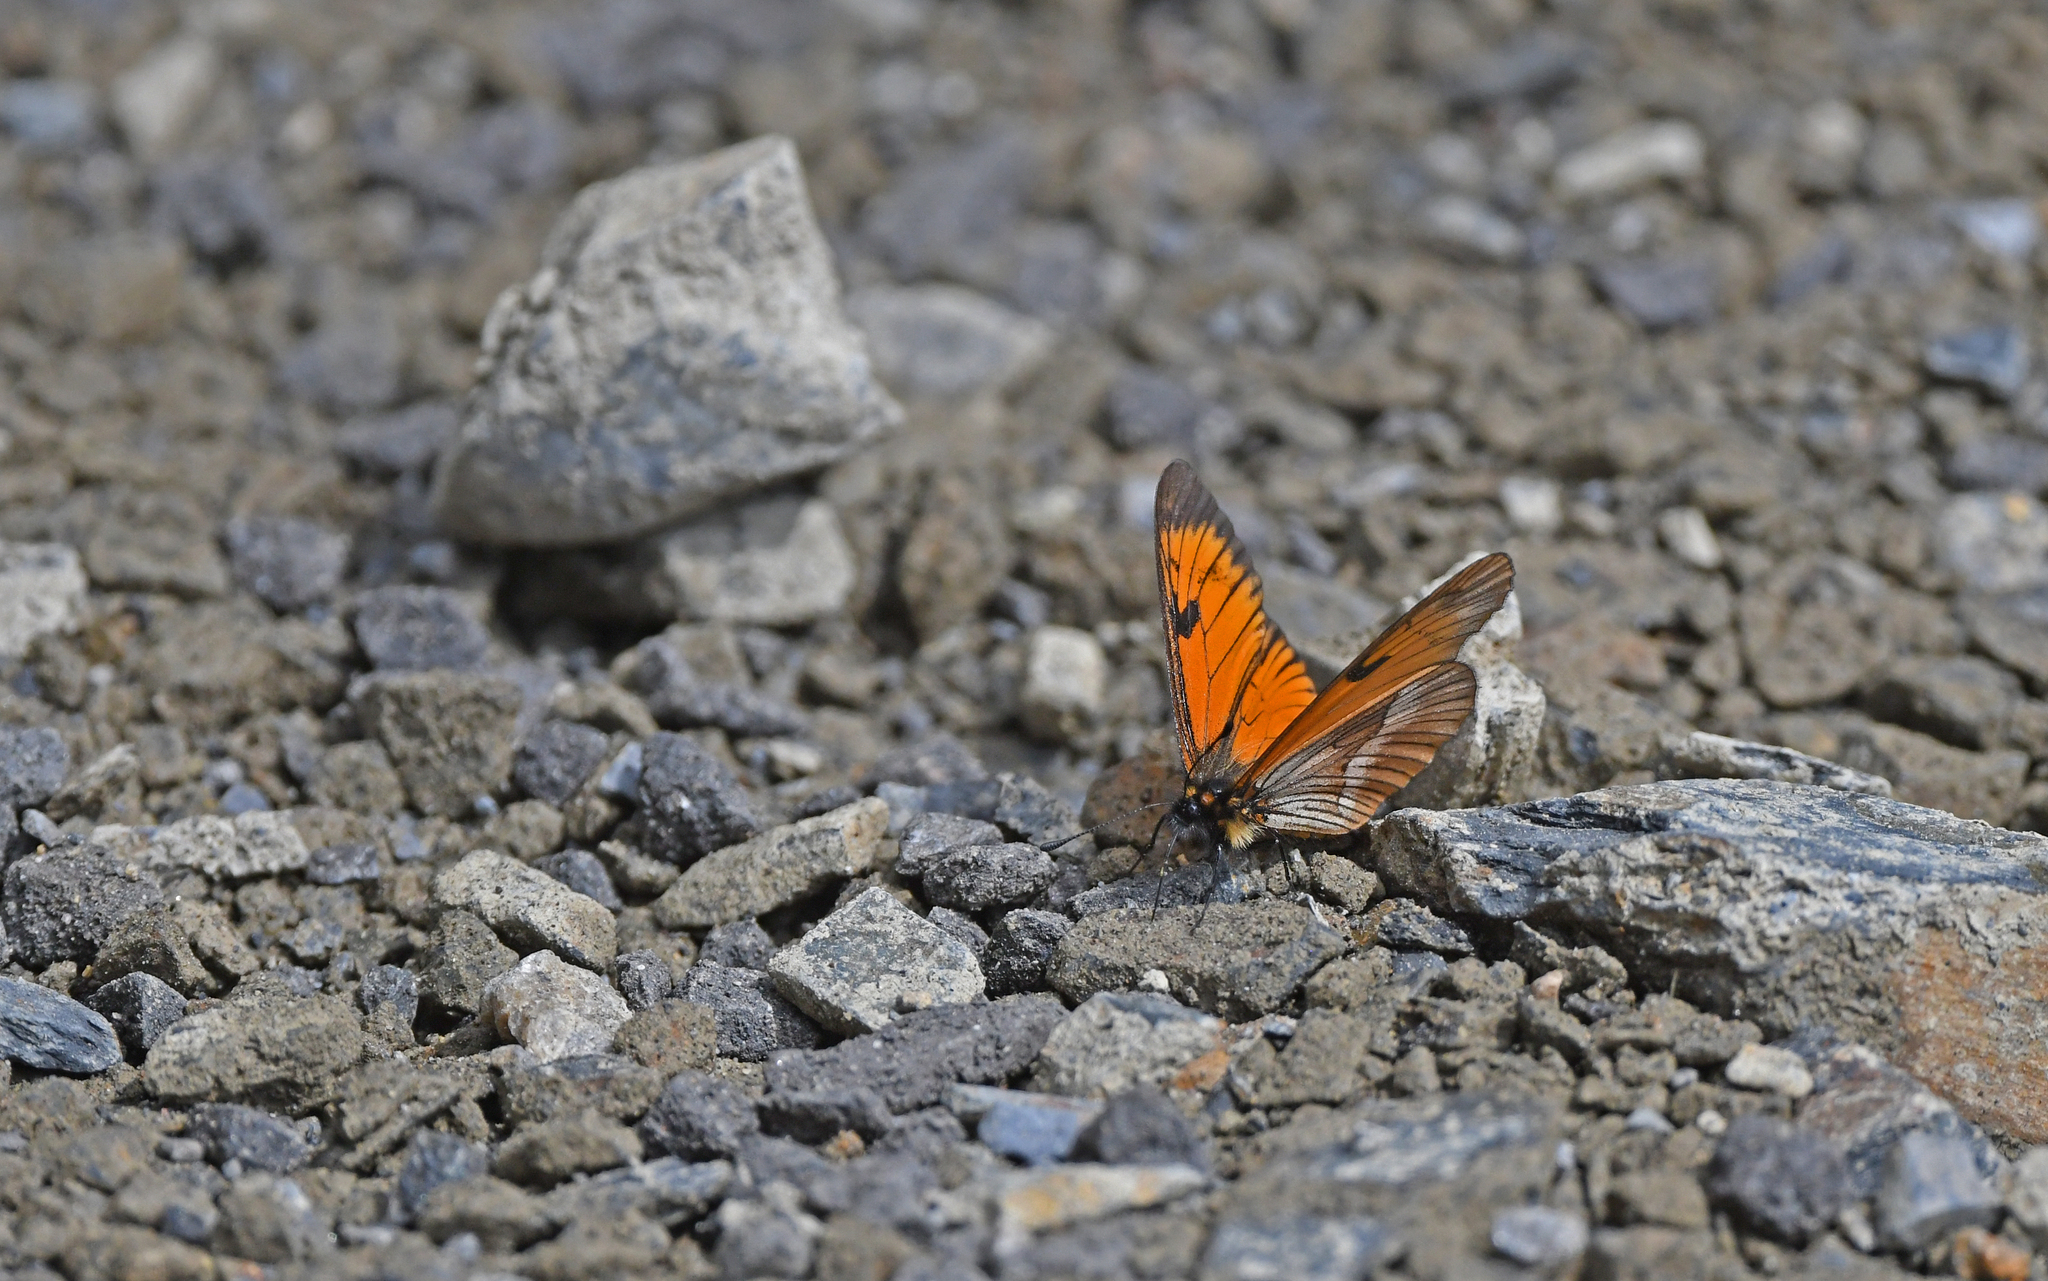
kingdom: Animalia
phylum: Arthropoda
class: Insecta
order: Lepidoptera
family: Nymphalidae
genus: Acraea
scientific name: Acraea Altinote eresia
